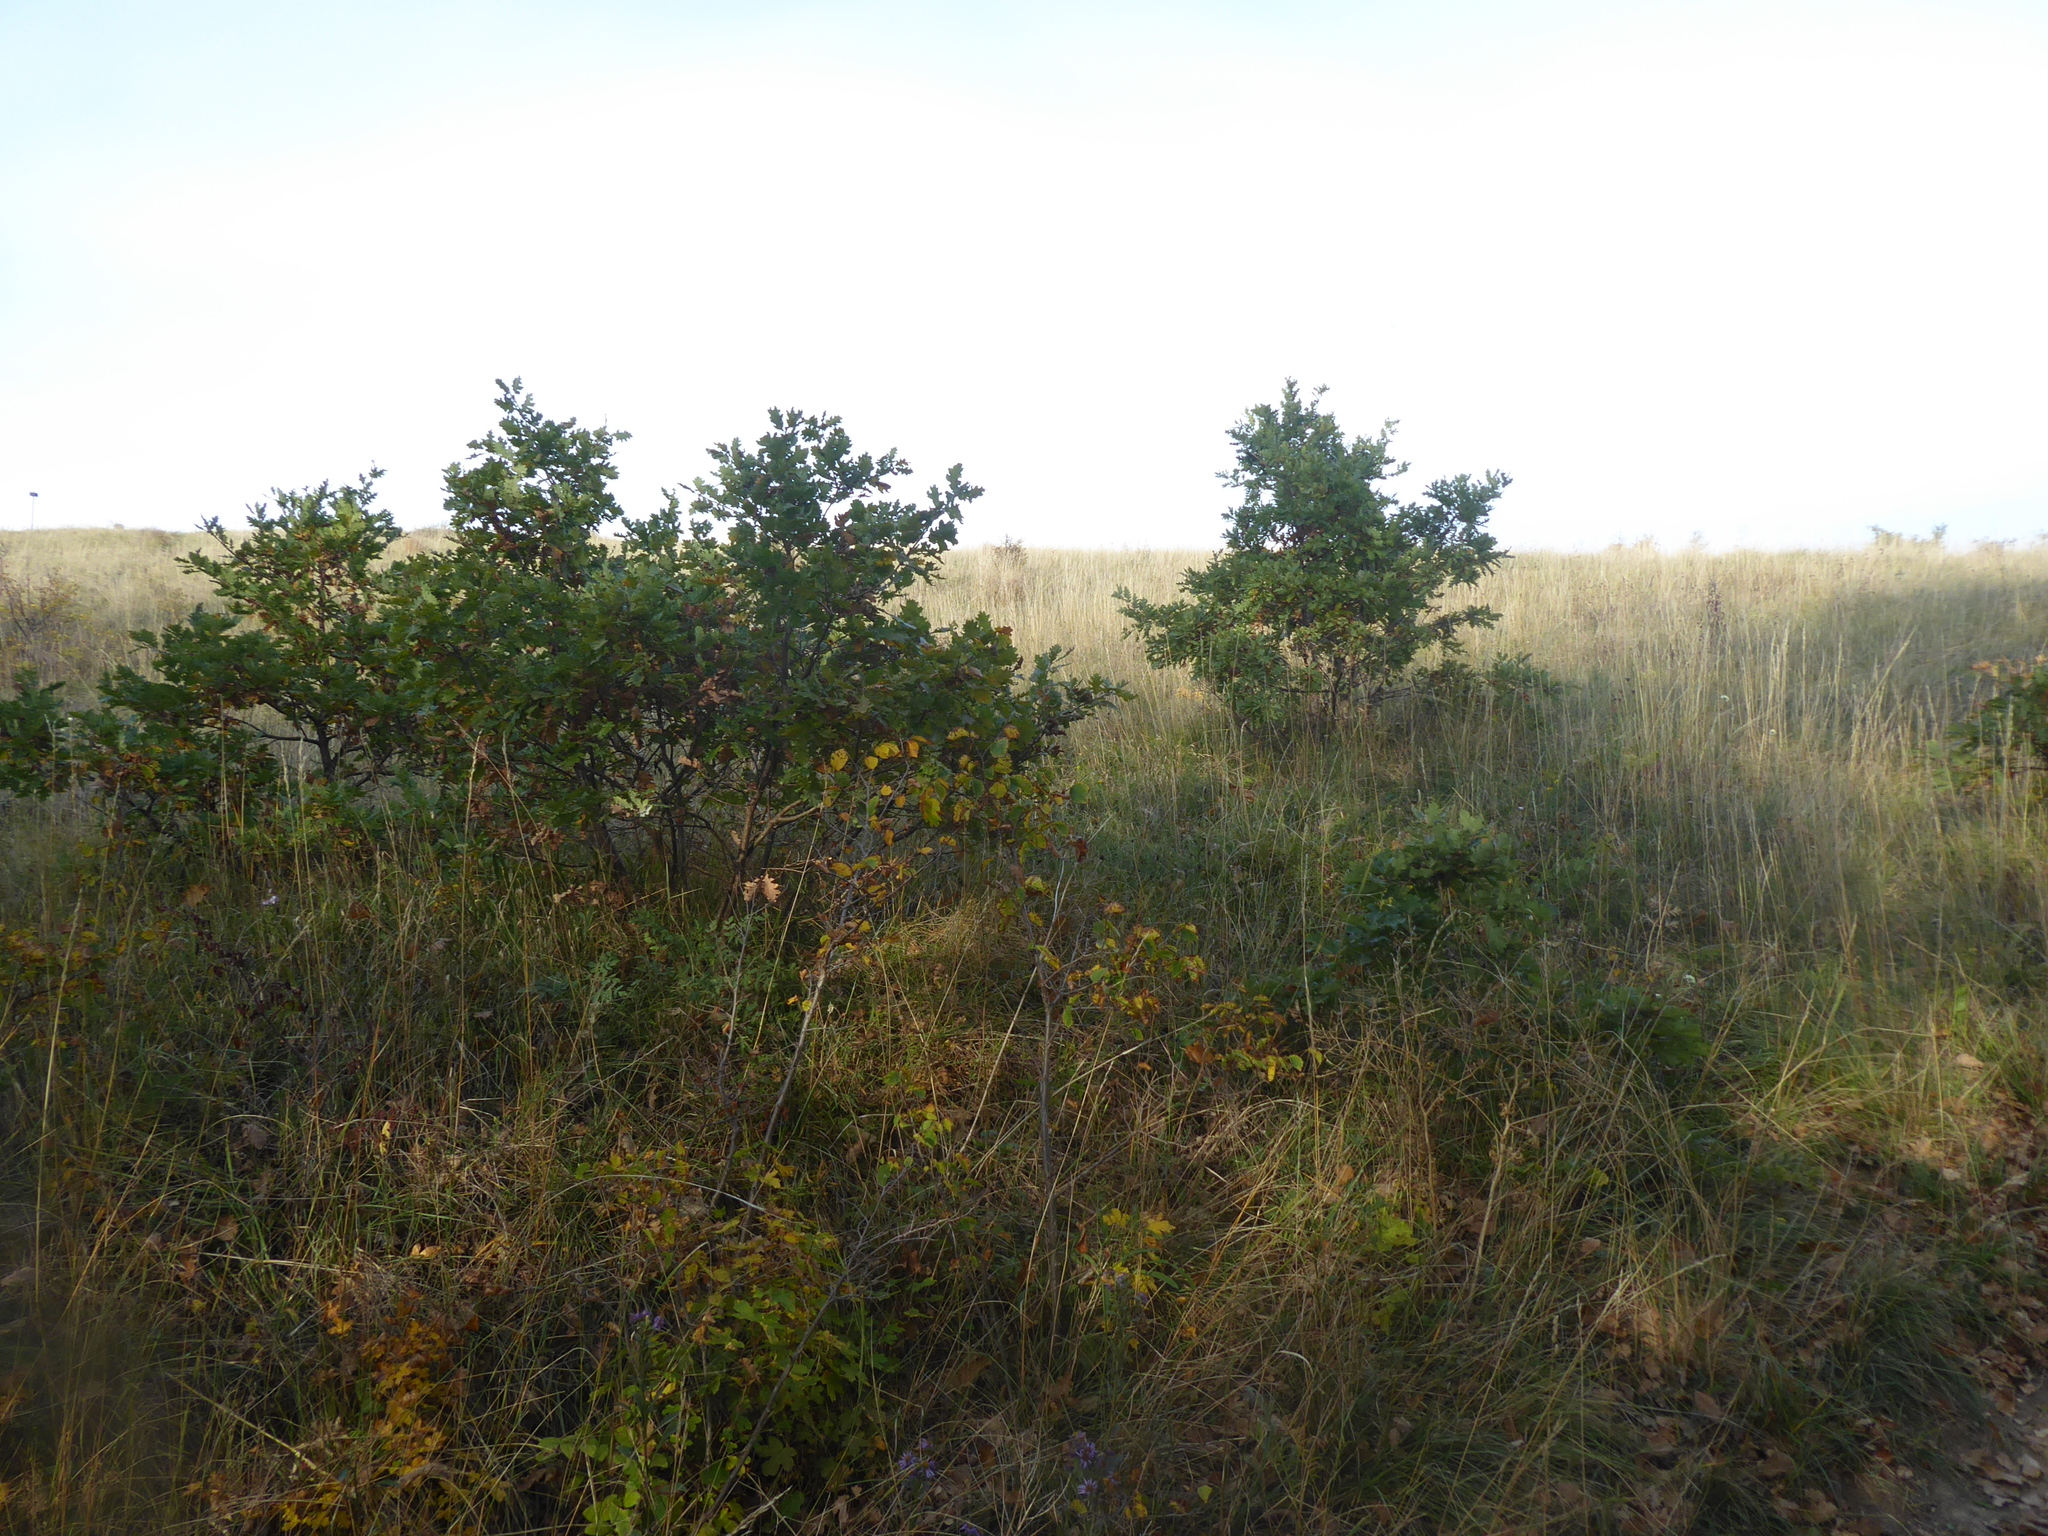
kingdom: Plantae
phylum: Tracheophyta
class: Magnoliopsida
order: Asterales
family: Asteraceae
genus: Aster
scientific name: Aster amellus
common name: European michaelmas daisy
